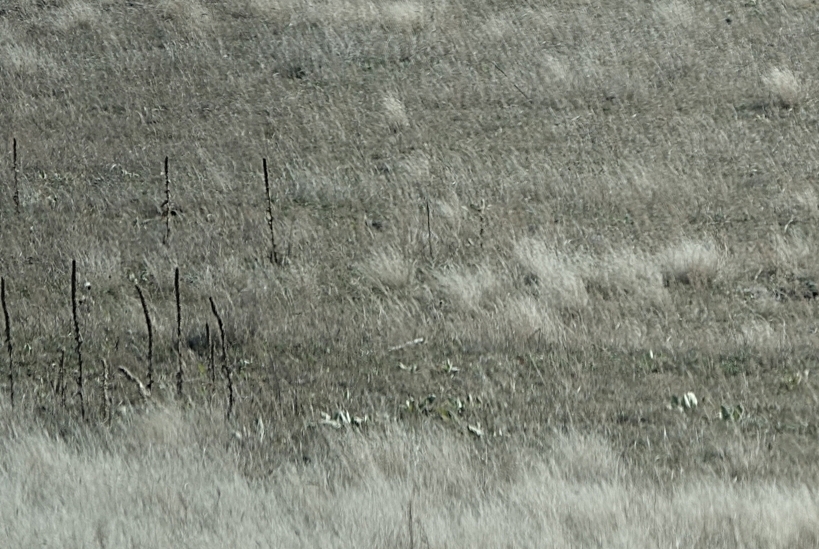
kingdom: Plantae
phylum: Tracheophyta
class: Magnoliopsida
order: Lamiales
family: Scrophulariaceae
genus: Verbascum
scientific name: Verbascum thapsus
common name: Common mullein
